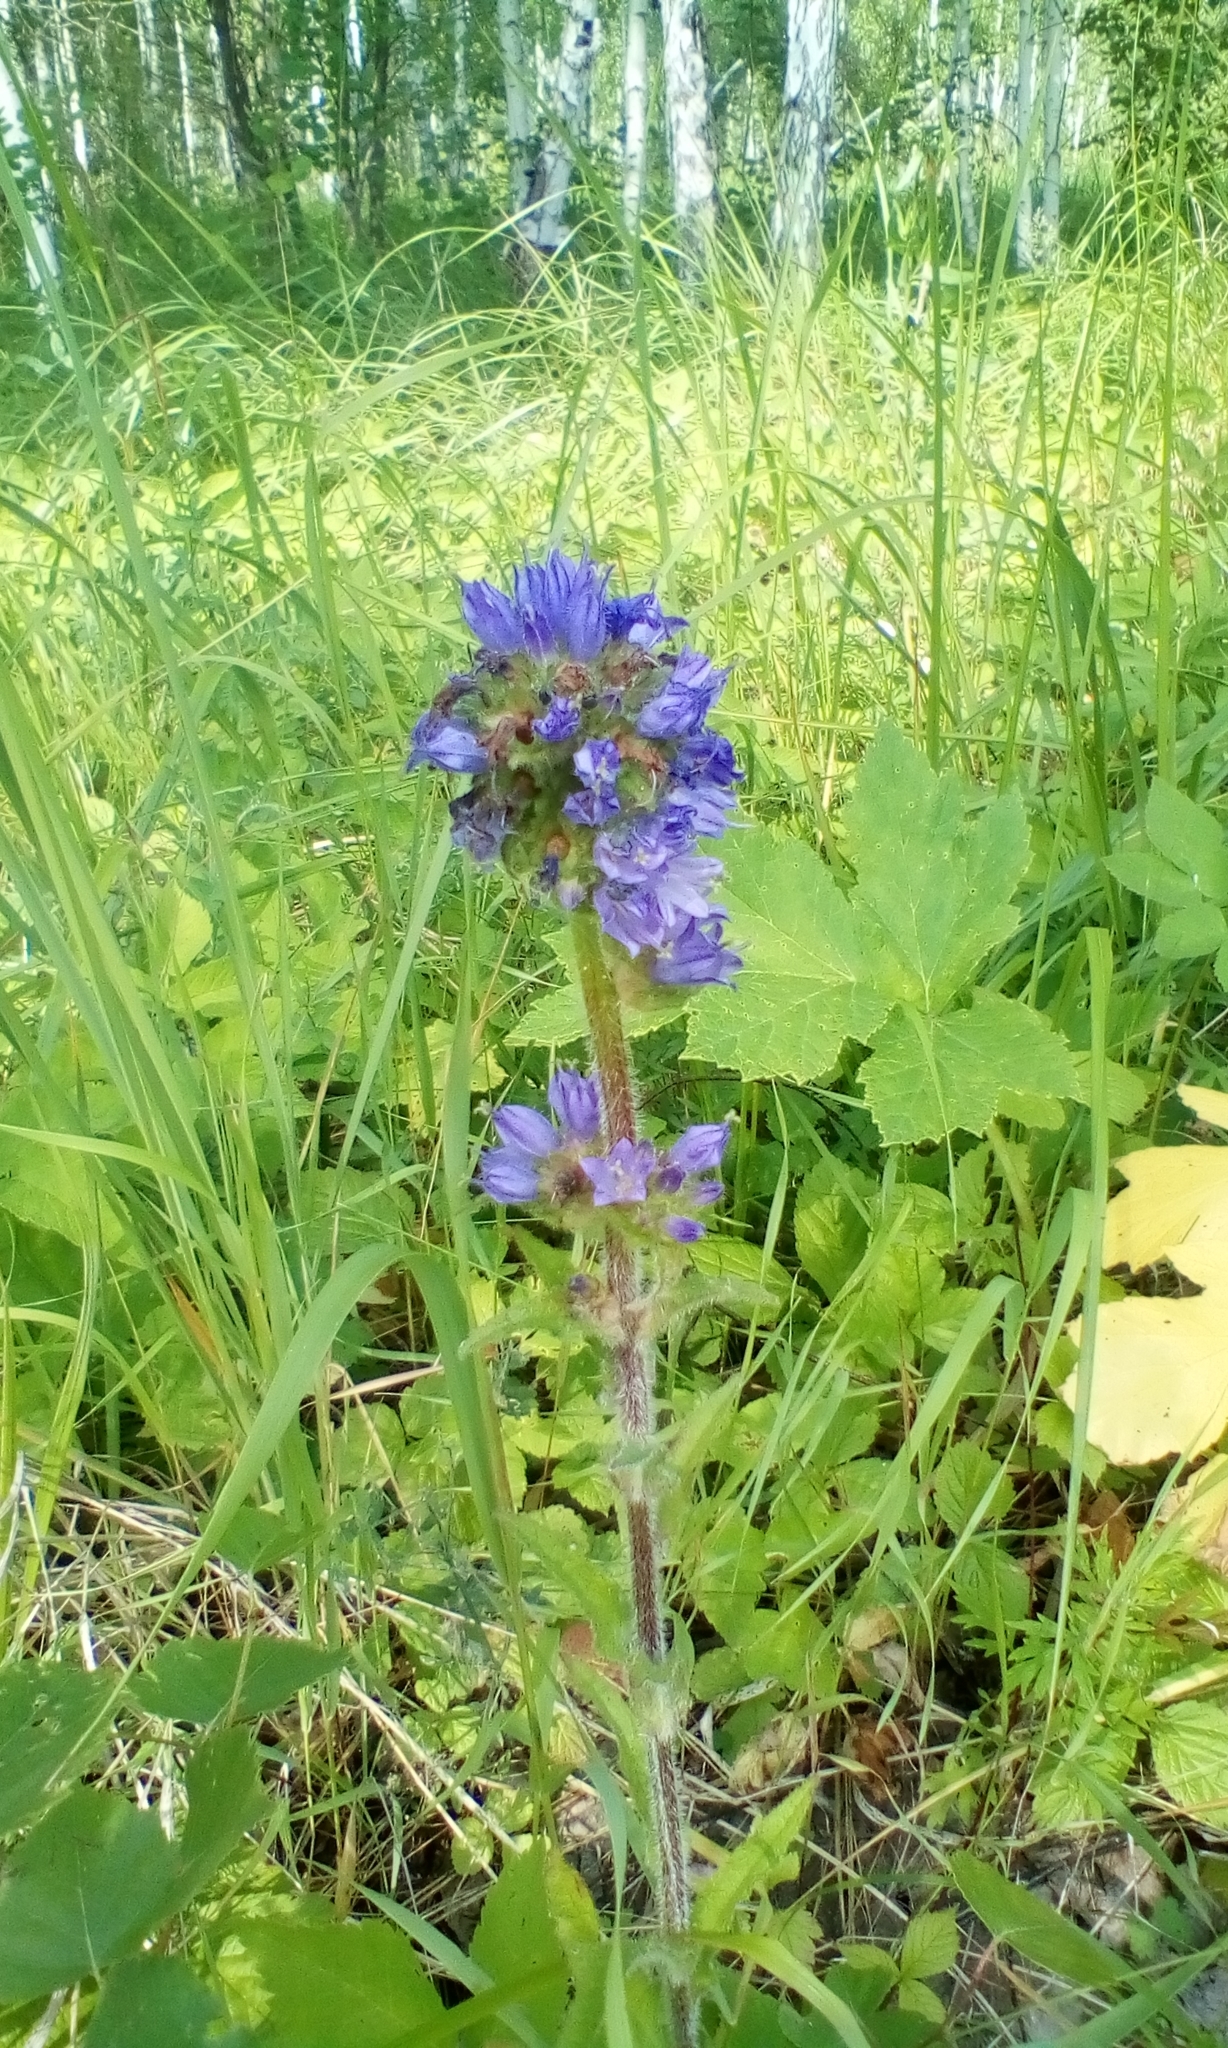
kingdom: Plantae
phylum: Tracheophyta
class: Magnoliopsida
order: Asterales
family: Campanulaceae
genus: Campanula
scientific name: Campanula cervicaria
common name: Bristly bellflower
